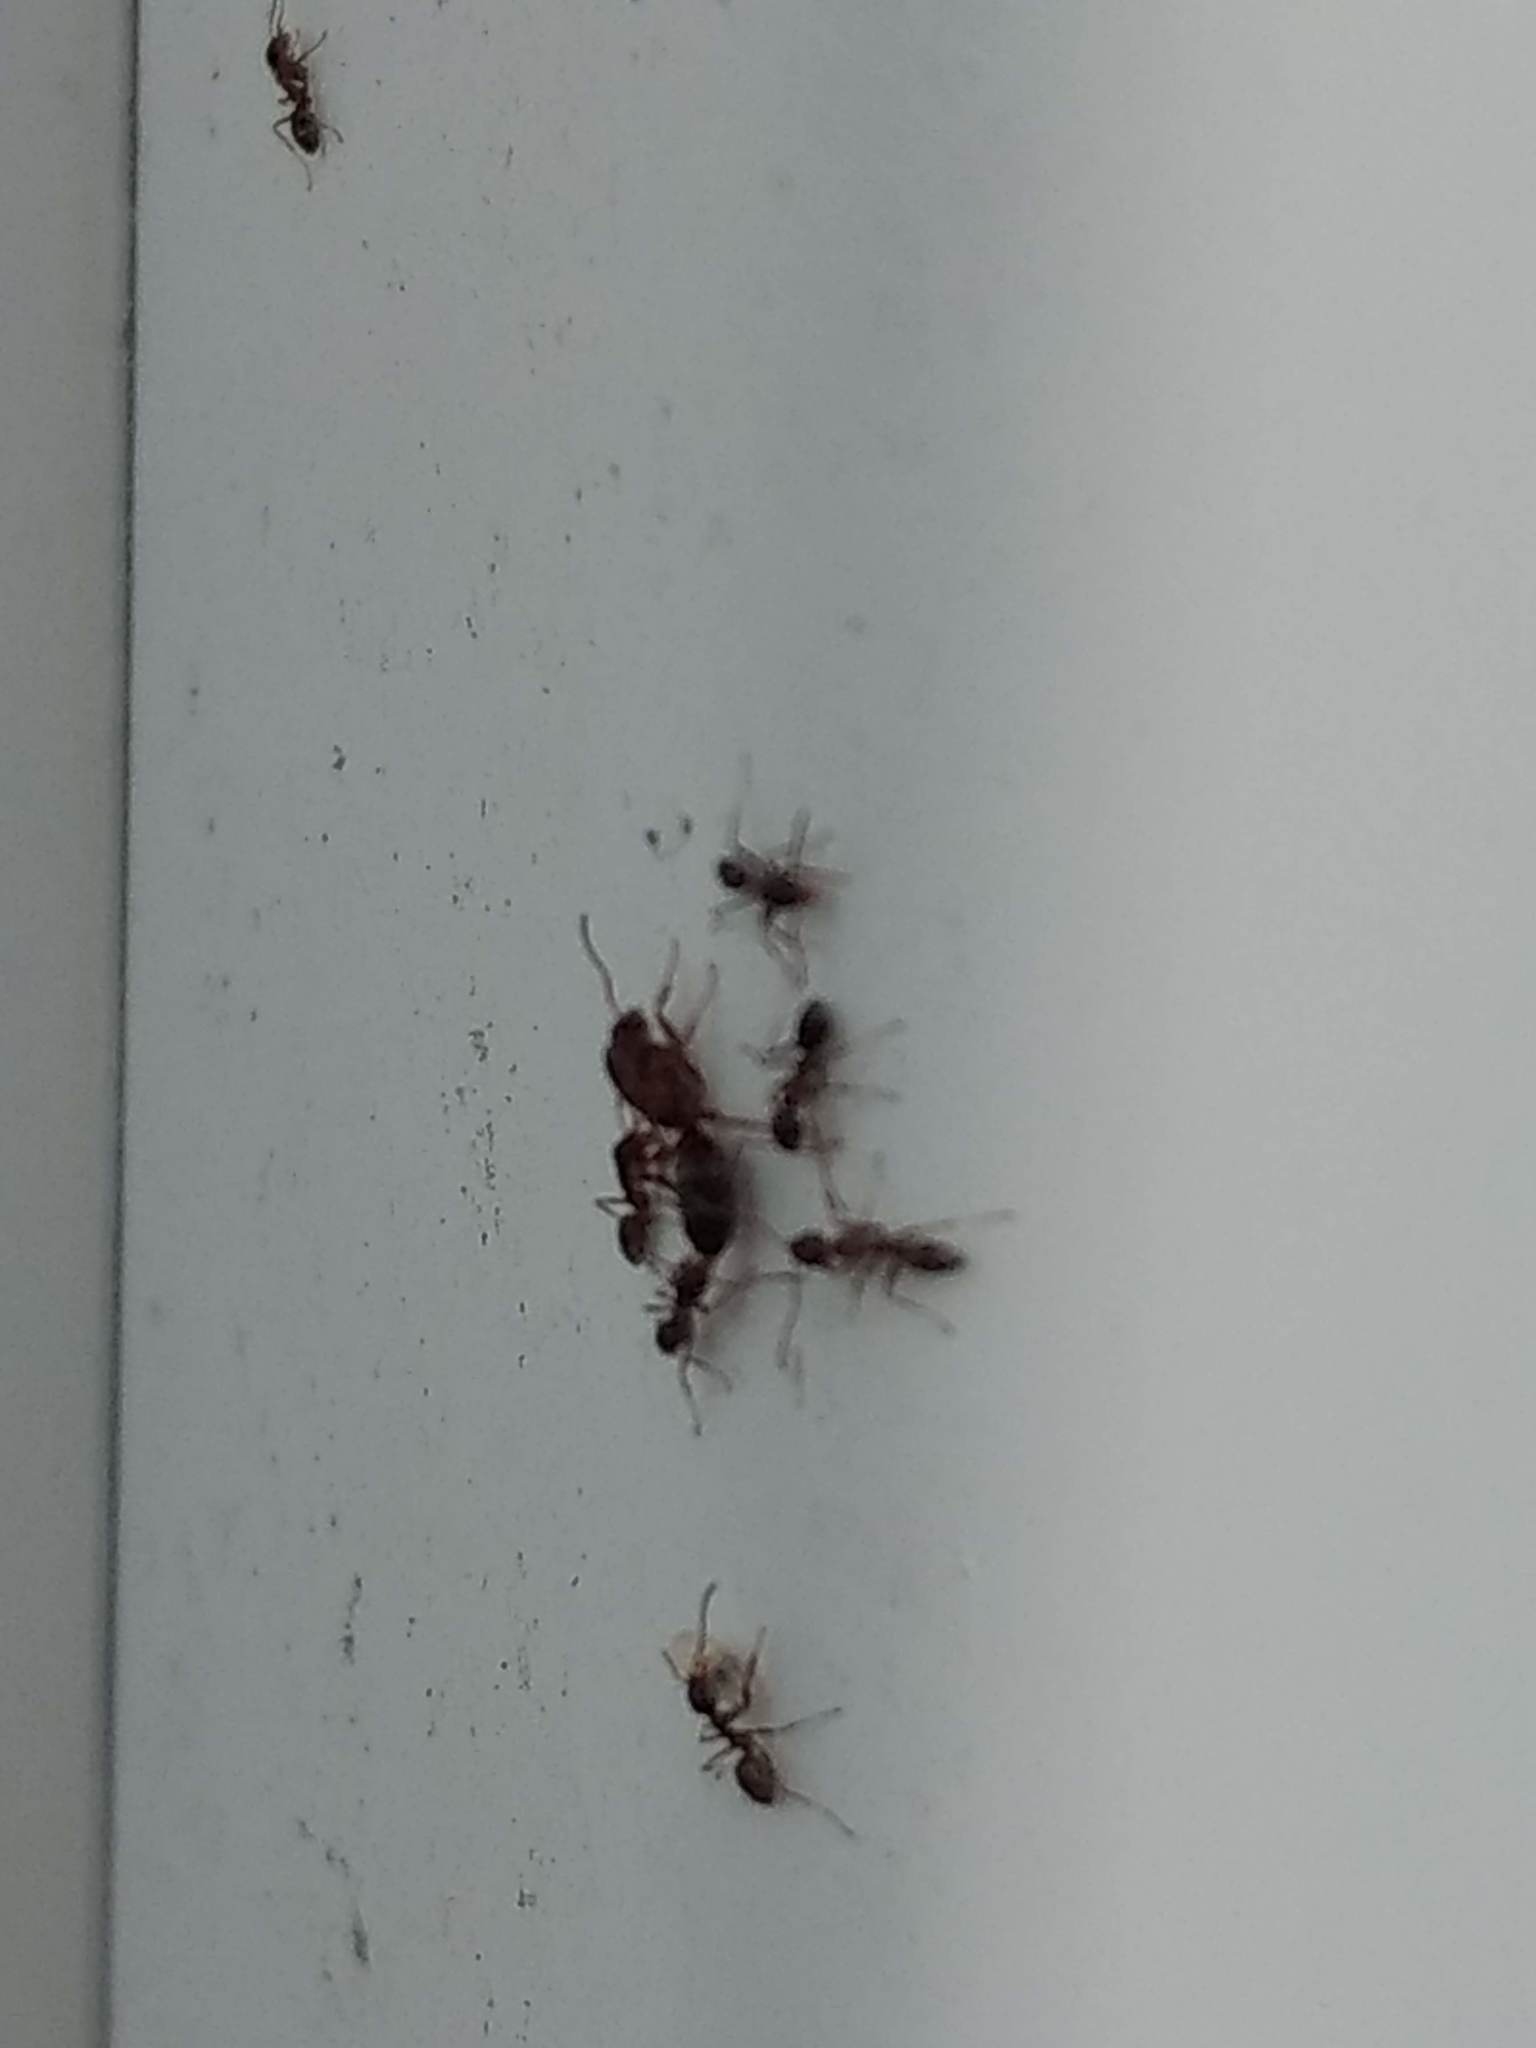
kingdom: Animalia
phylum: Arthropoda
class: Insecta
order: Hymenoptera
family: Formicidae
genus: Linepithema
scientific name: Linepithema humile
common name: Argentine ant
